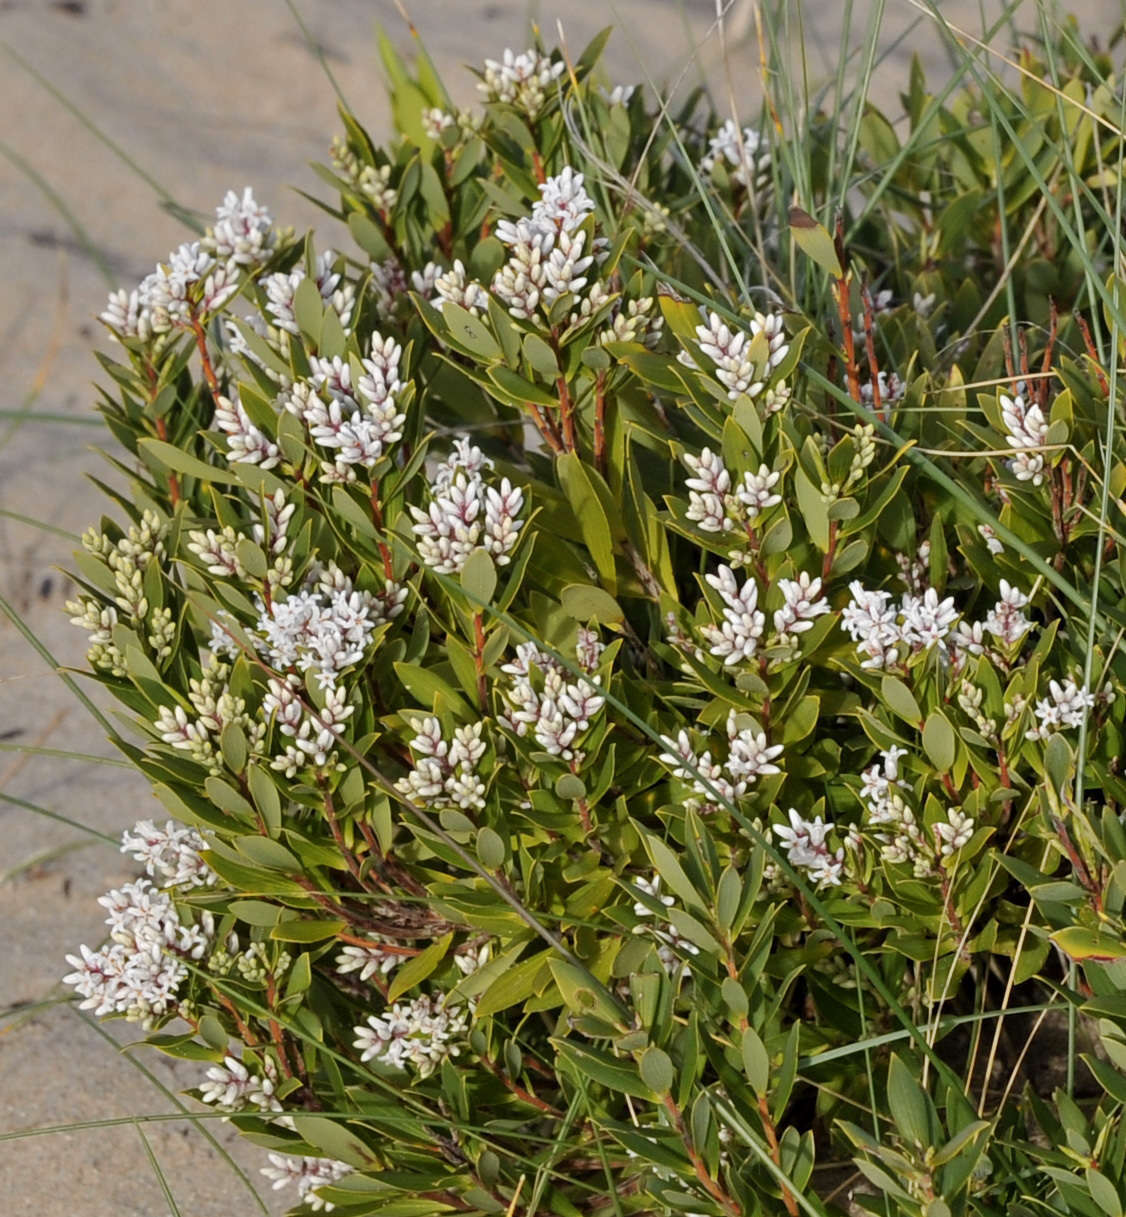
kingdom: Plantae
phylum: Tracheophyta
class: Magnoliopsida
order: Ericales
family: Ericaceae
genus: Leptecophylla
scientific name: Leptecophylla parvifolia
